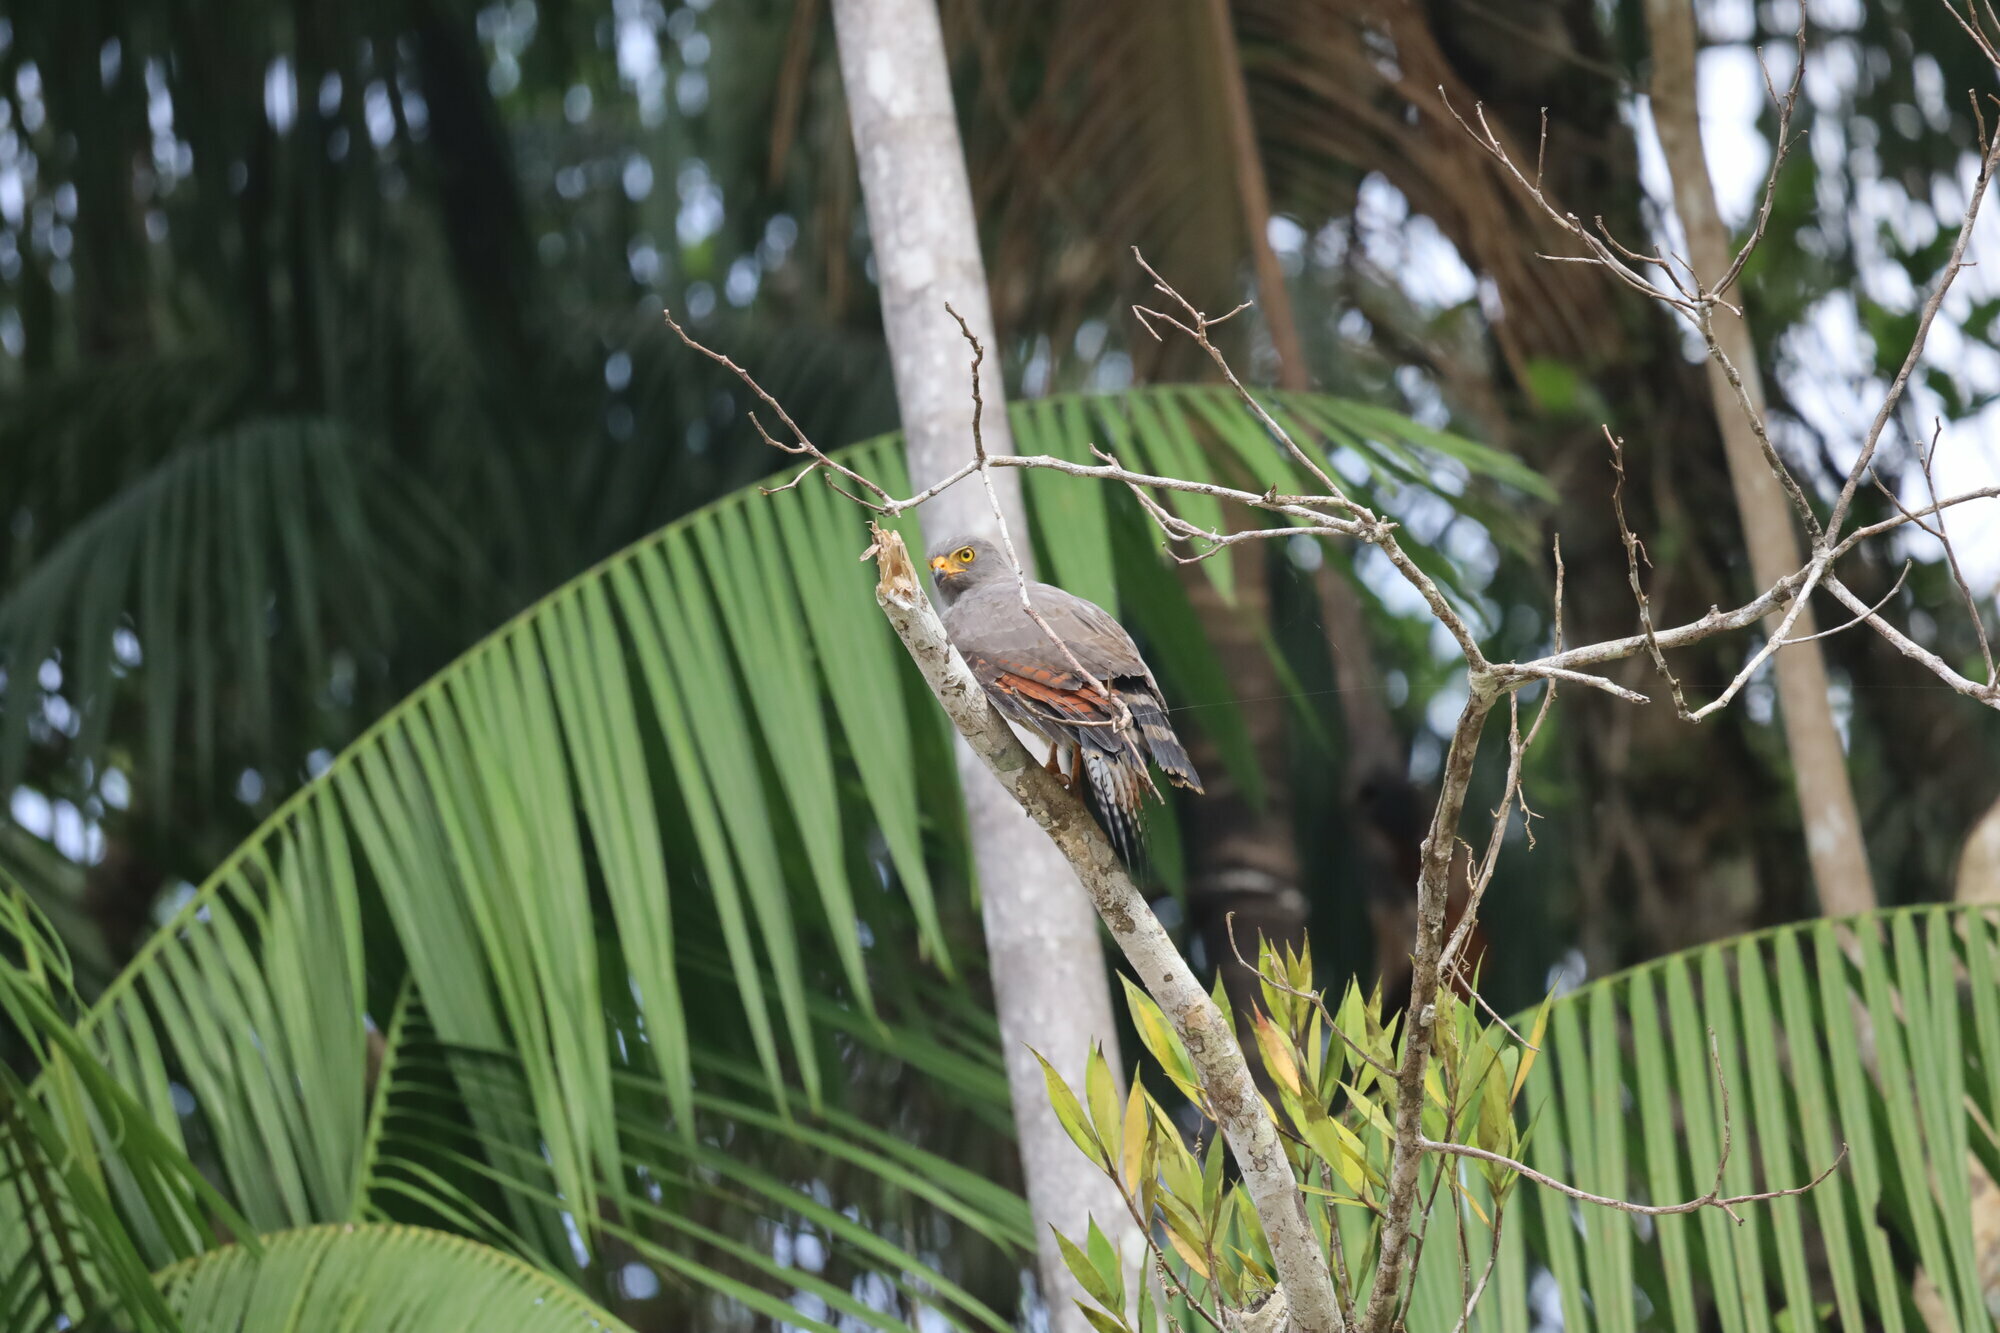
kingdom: Animalia
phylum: Chordata
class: Aves
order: Accipitriformes
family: Accipitridae
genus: Rupornis
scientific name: Rupornis magnirostris
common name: Roadside hawk
